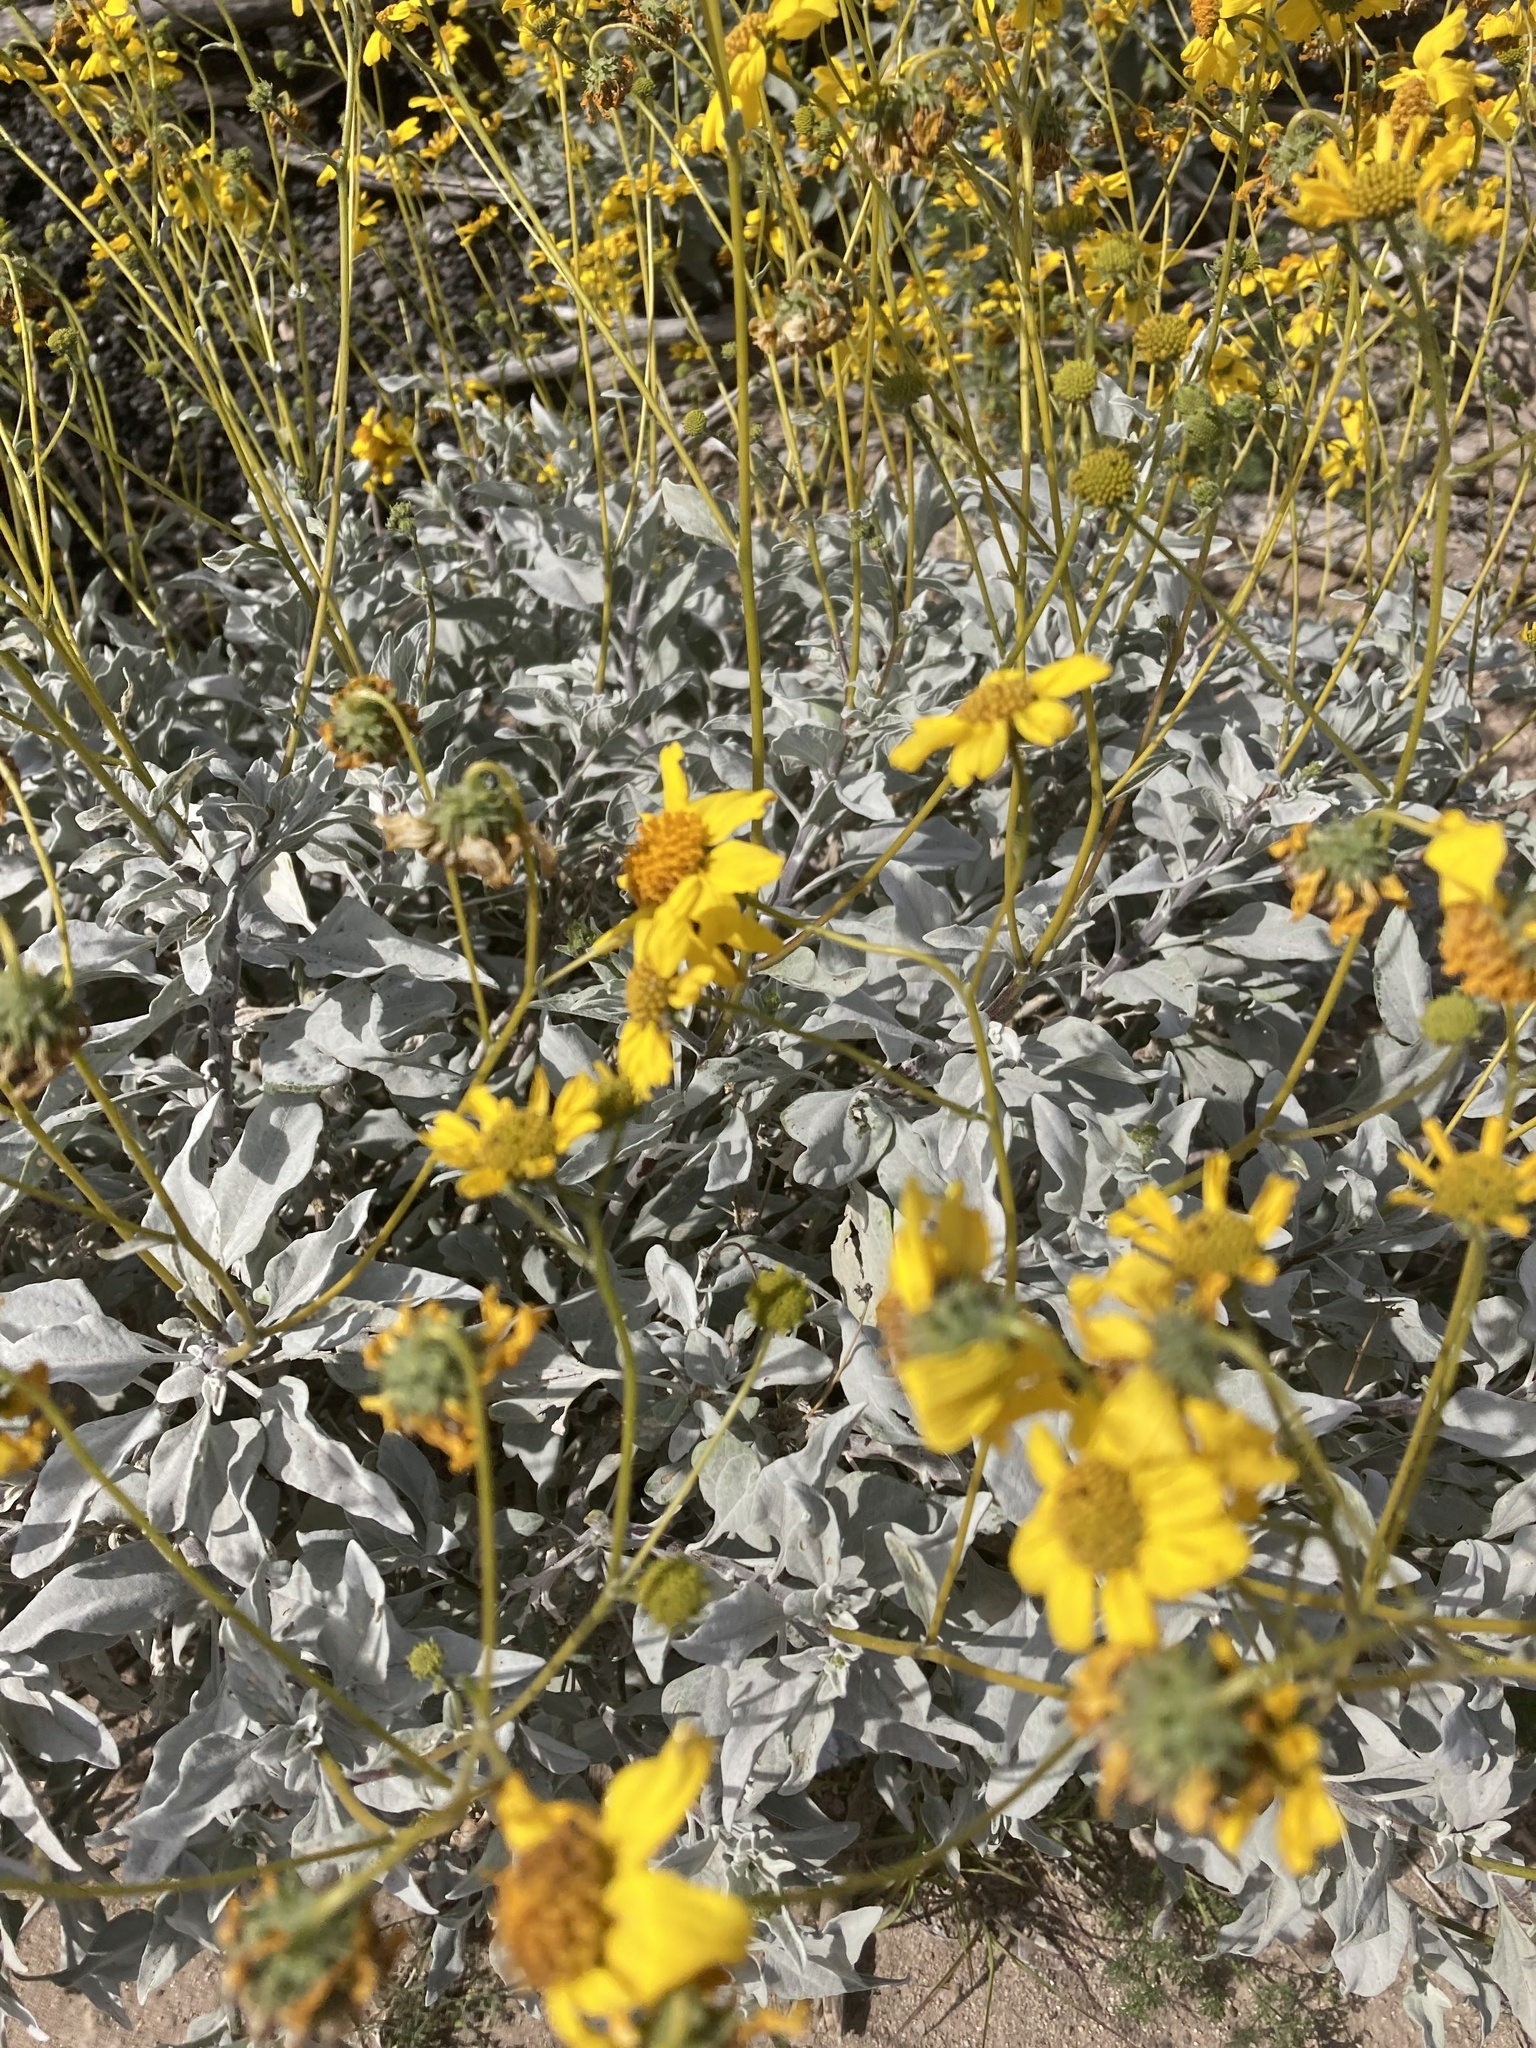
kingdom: Plantae
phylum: Tracheophyta
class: Magnoliopsida
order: Asterales
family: Asteraceae
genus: Encelia
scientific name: Encelia farinosa
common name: Brittlebush
